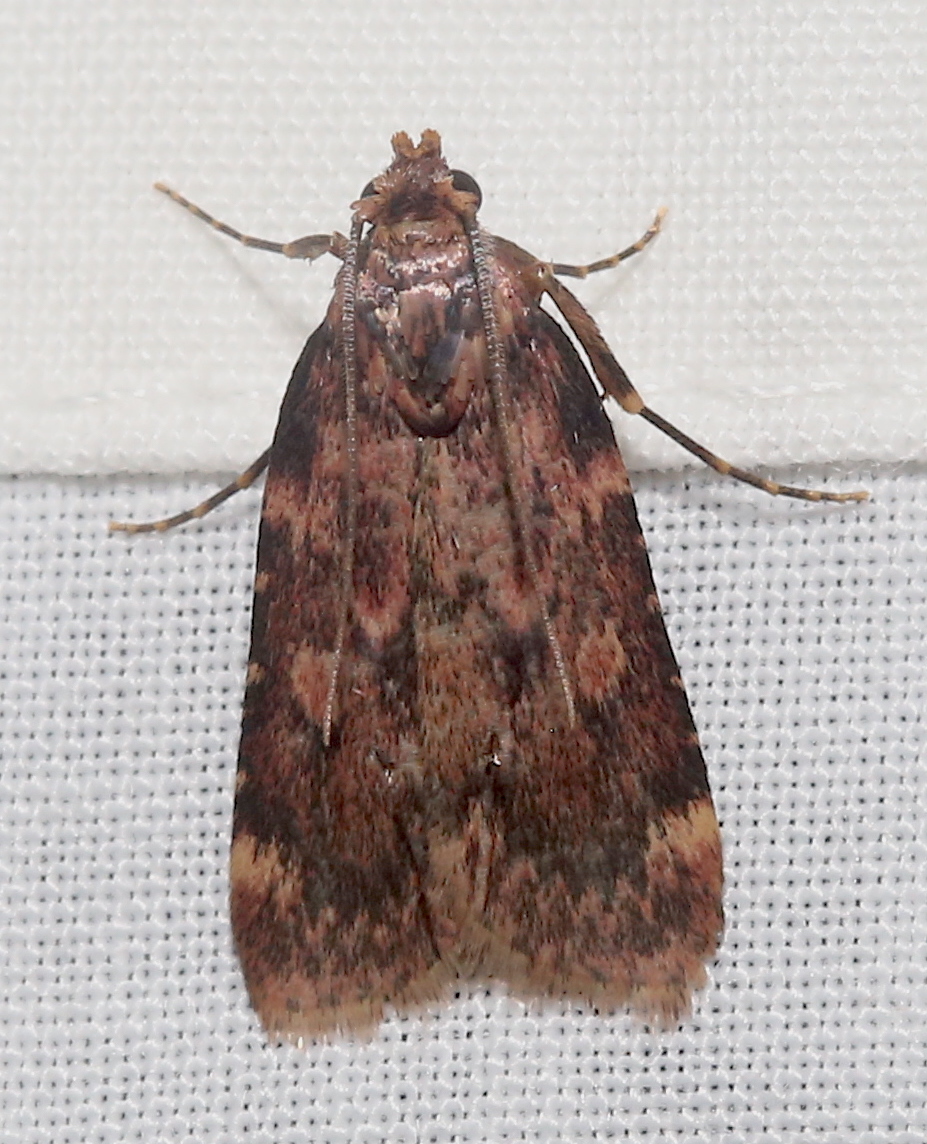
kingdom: Animalia
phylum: Arthropoda
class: Insecta
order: Lepidoptera
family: Pyralidae
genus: Aglossa
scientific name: Aglossa cuprina
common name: Grease moth
